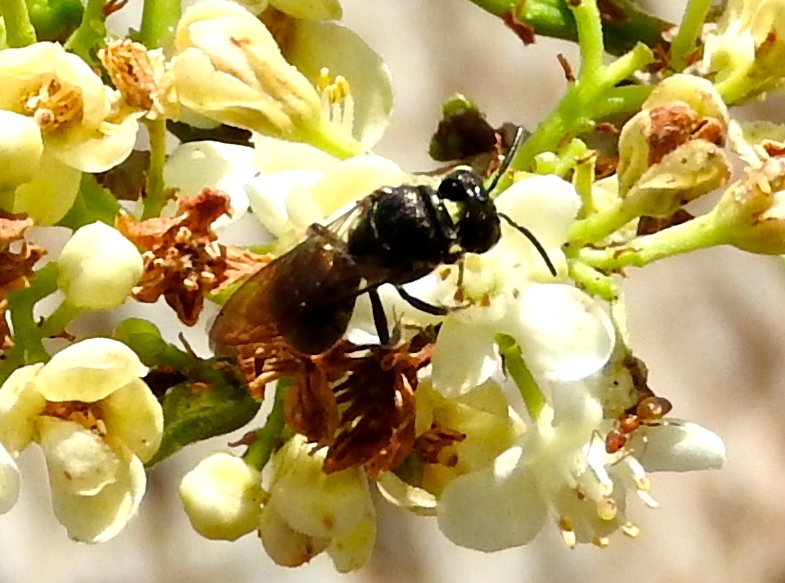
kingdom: Animalia
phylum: Arthropoda
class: Insecta
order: Hymenoptera
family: Apidae
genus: Ceratina
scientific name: Ceratina
